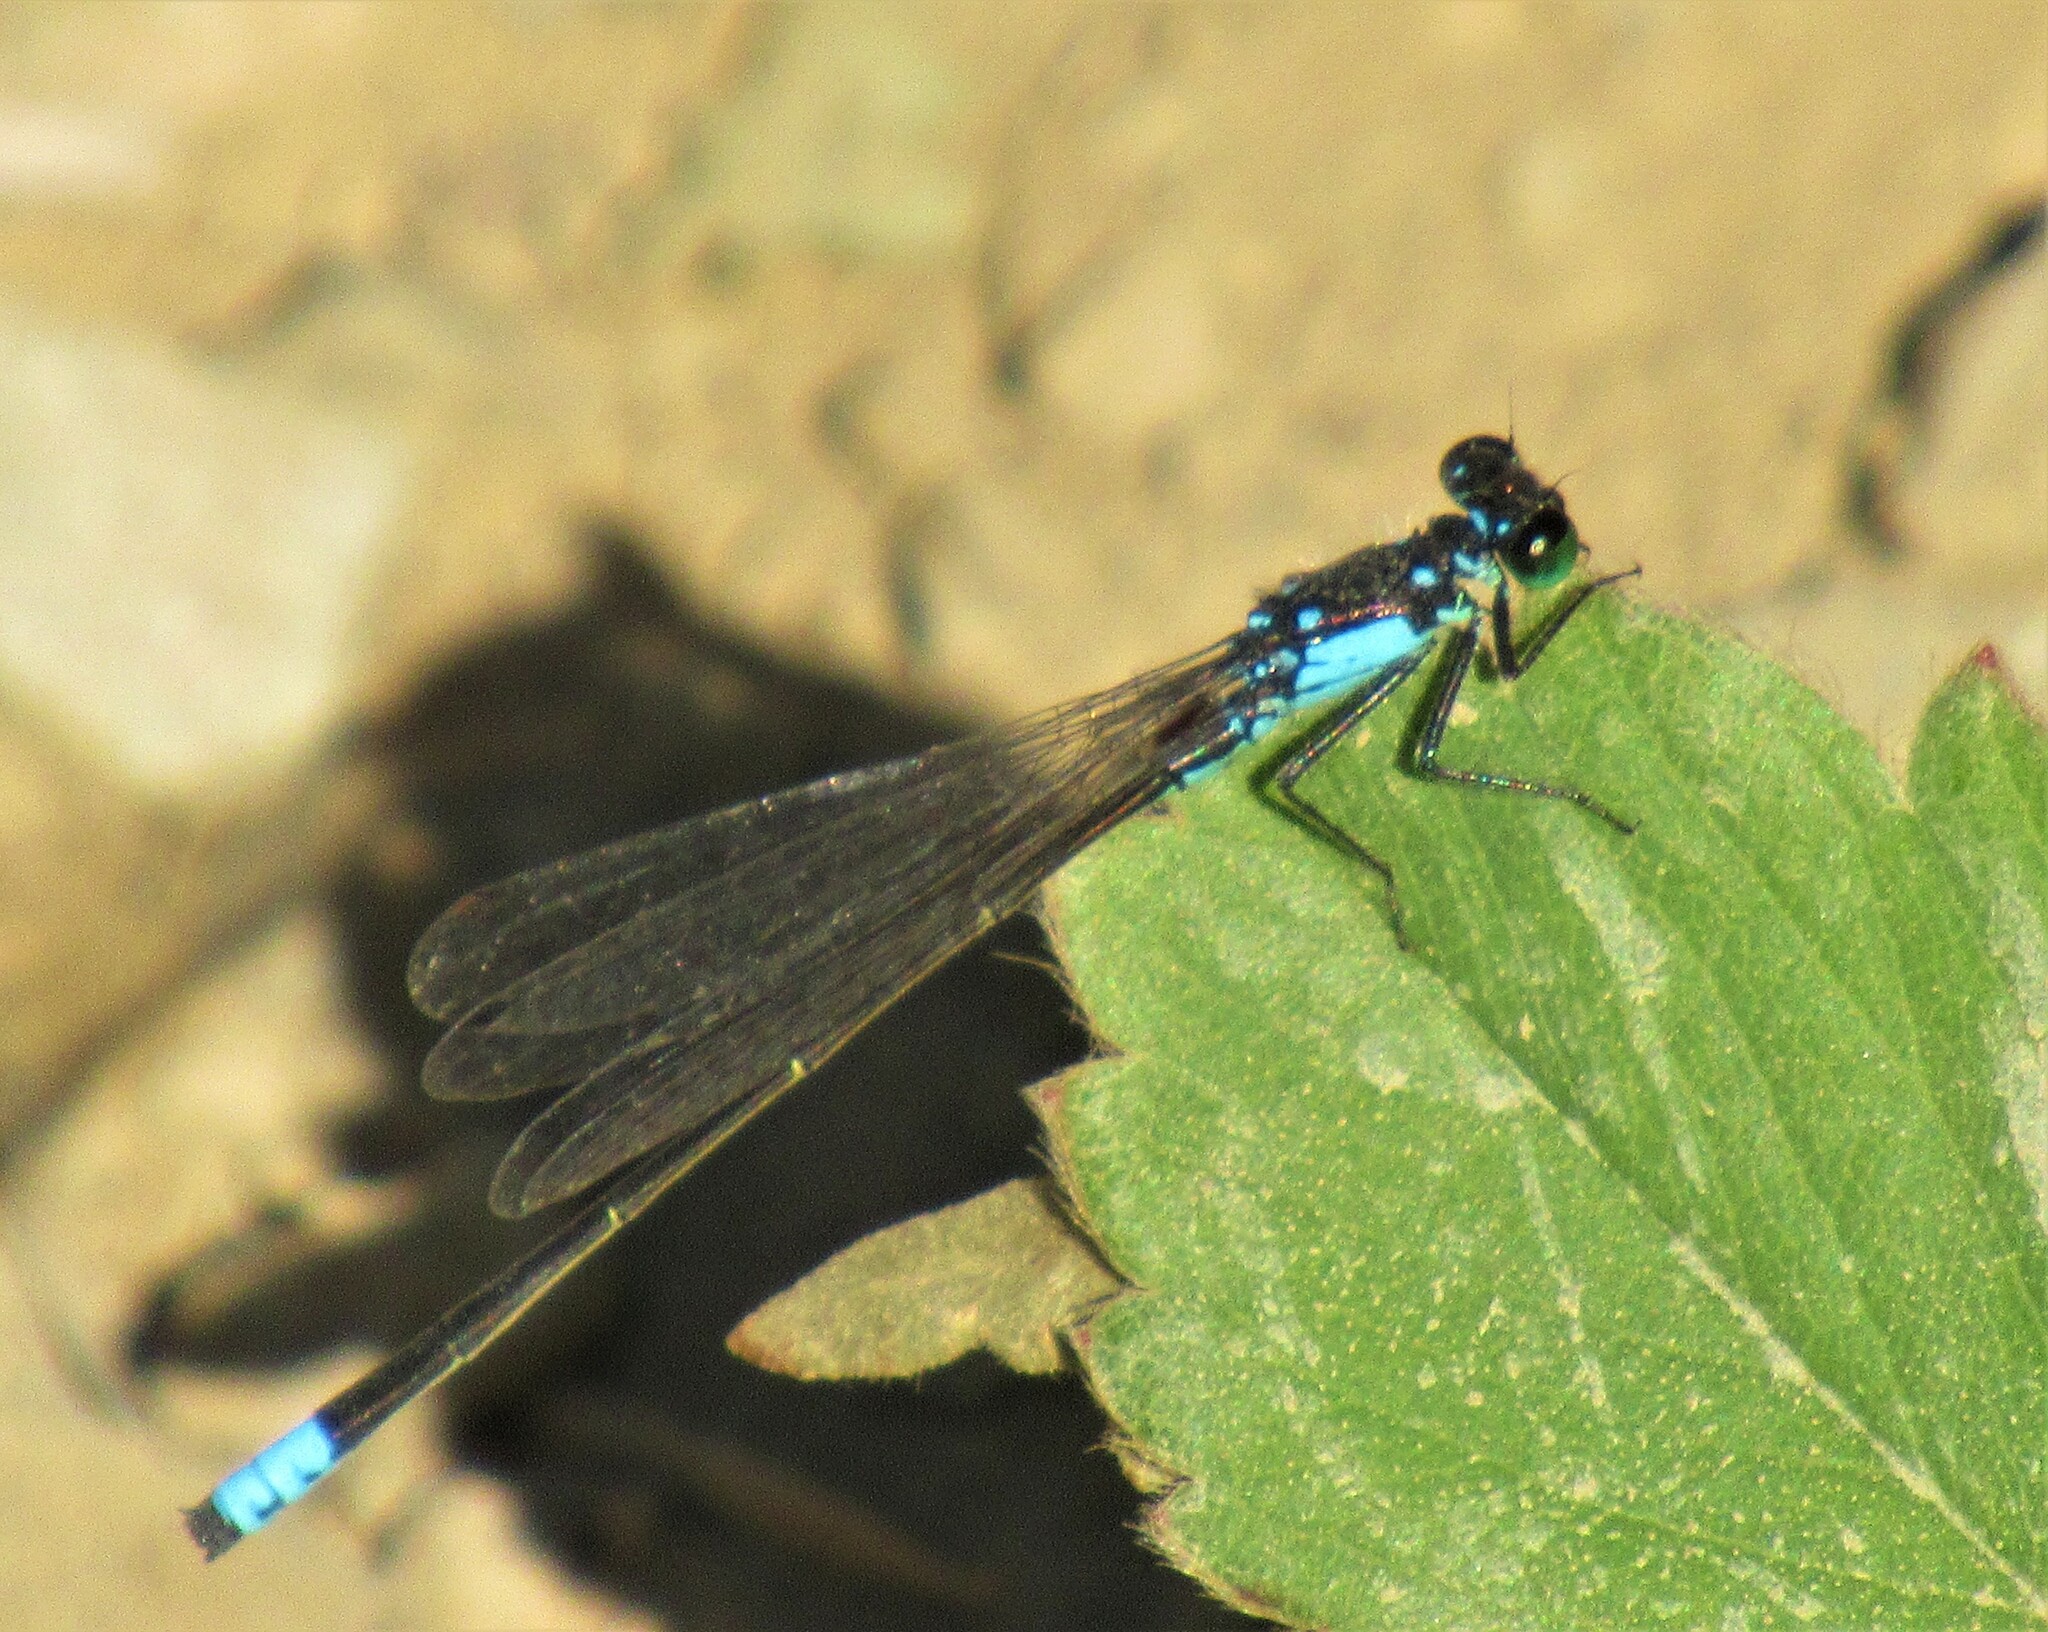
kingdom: Animalia
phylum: Arthropoda
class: Insecta
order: Odonata
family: Coenagrionidae
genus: Ischnura
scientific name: Ischnura cervula
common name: Pacific forktail
